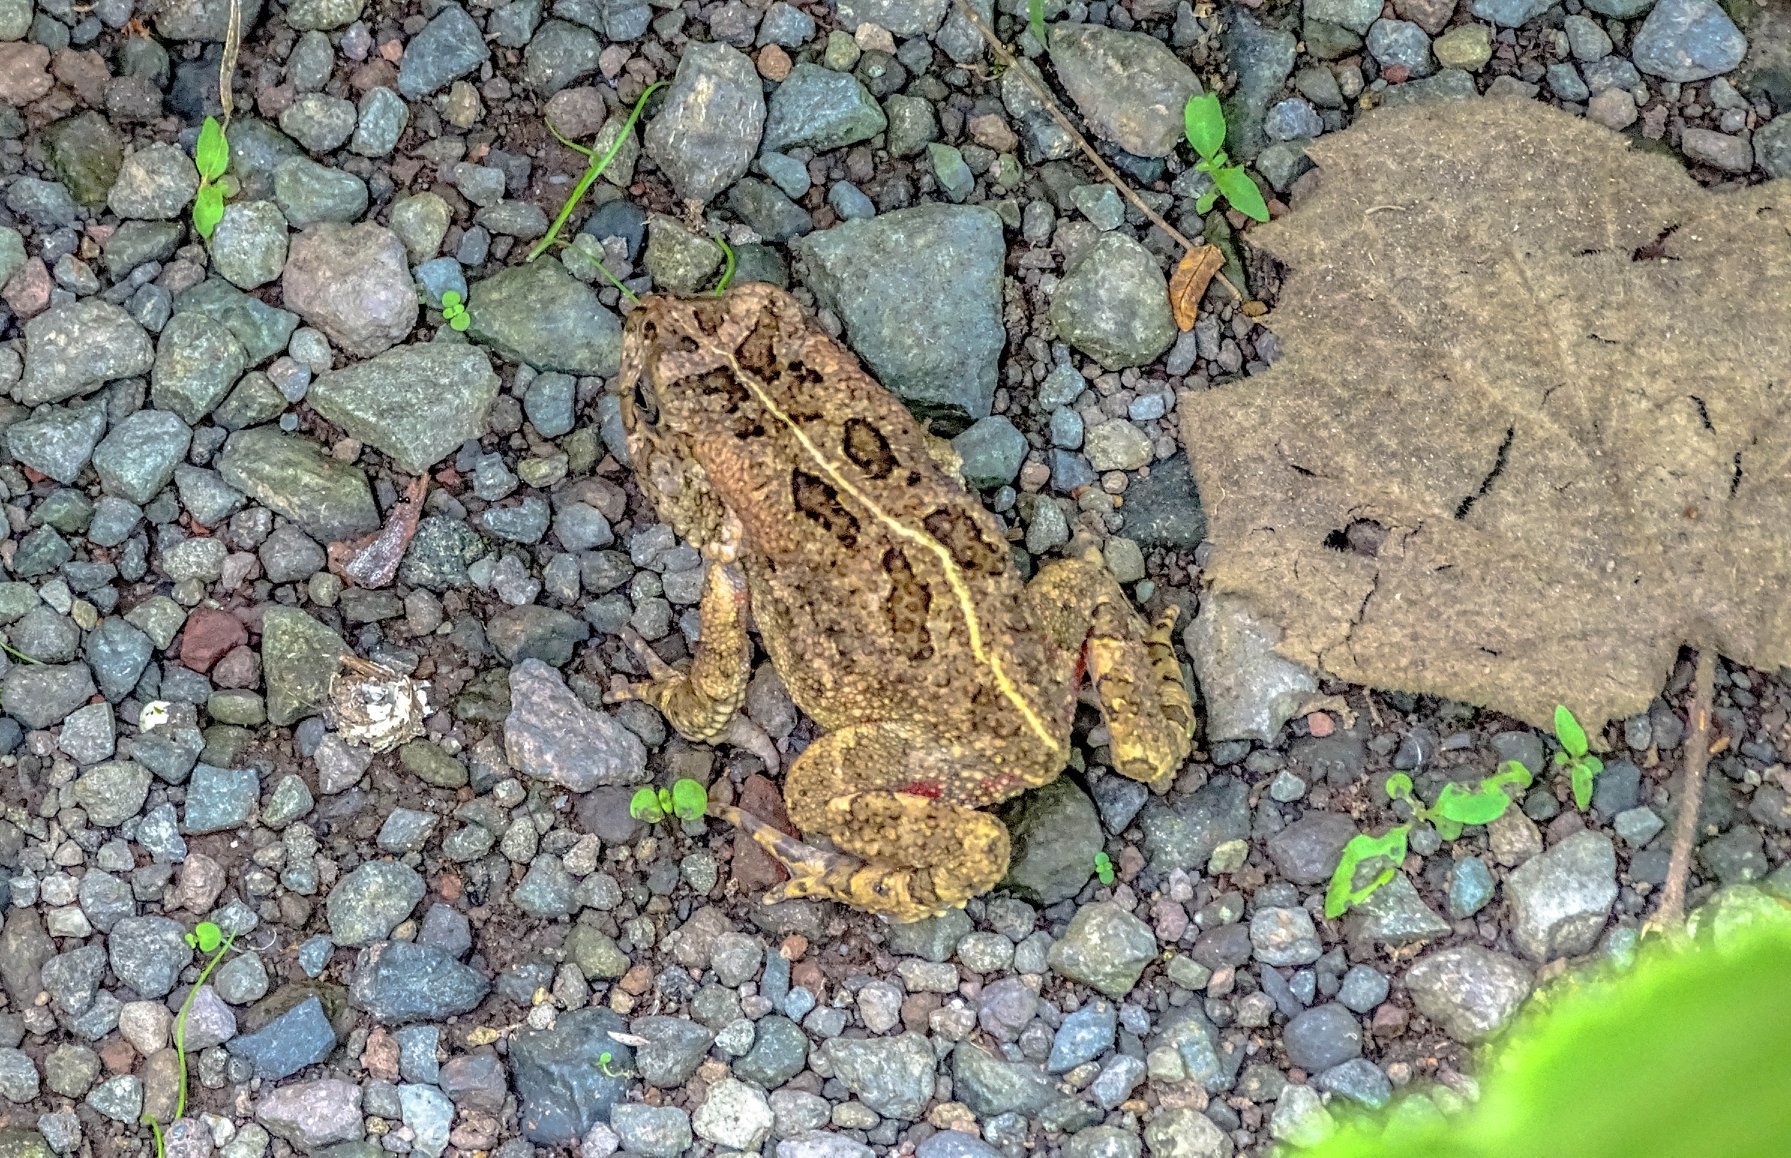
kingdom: Animalia
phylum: Chordata
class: Amphibia
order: Anura
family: Bufonidae
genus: Sclerophrys
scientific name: Sclerophrys gutturalis
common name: African common toad
